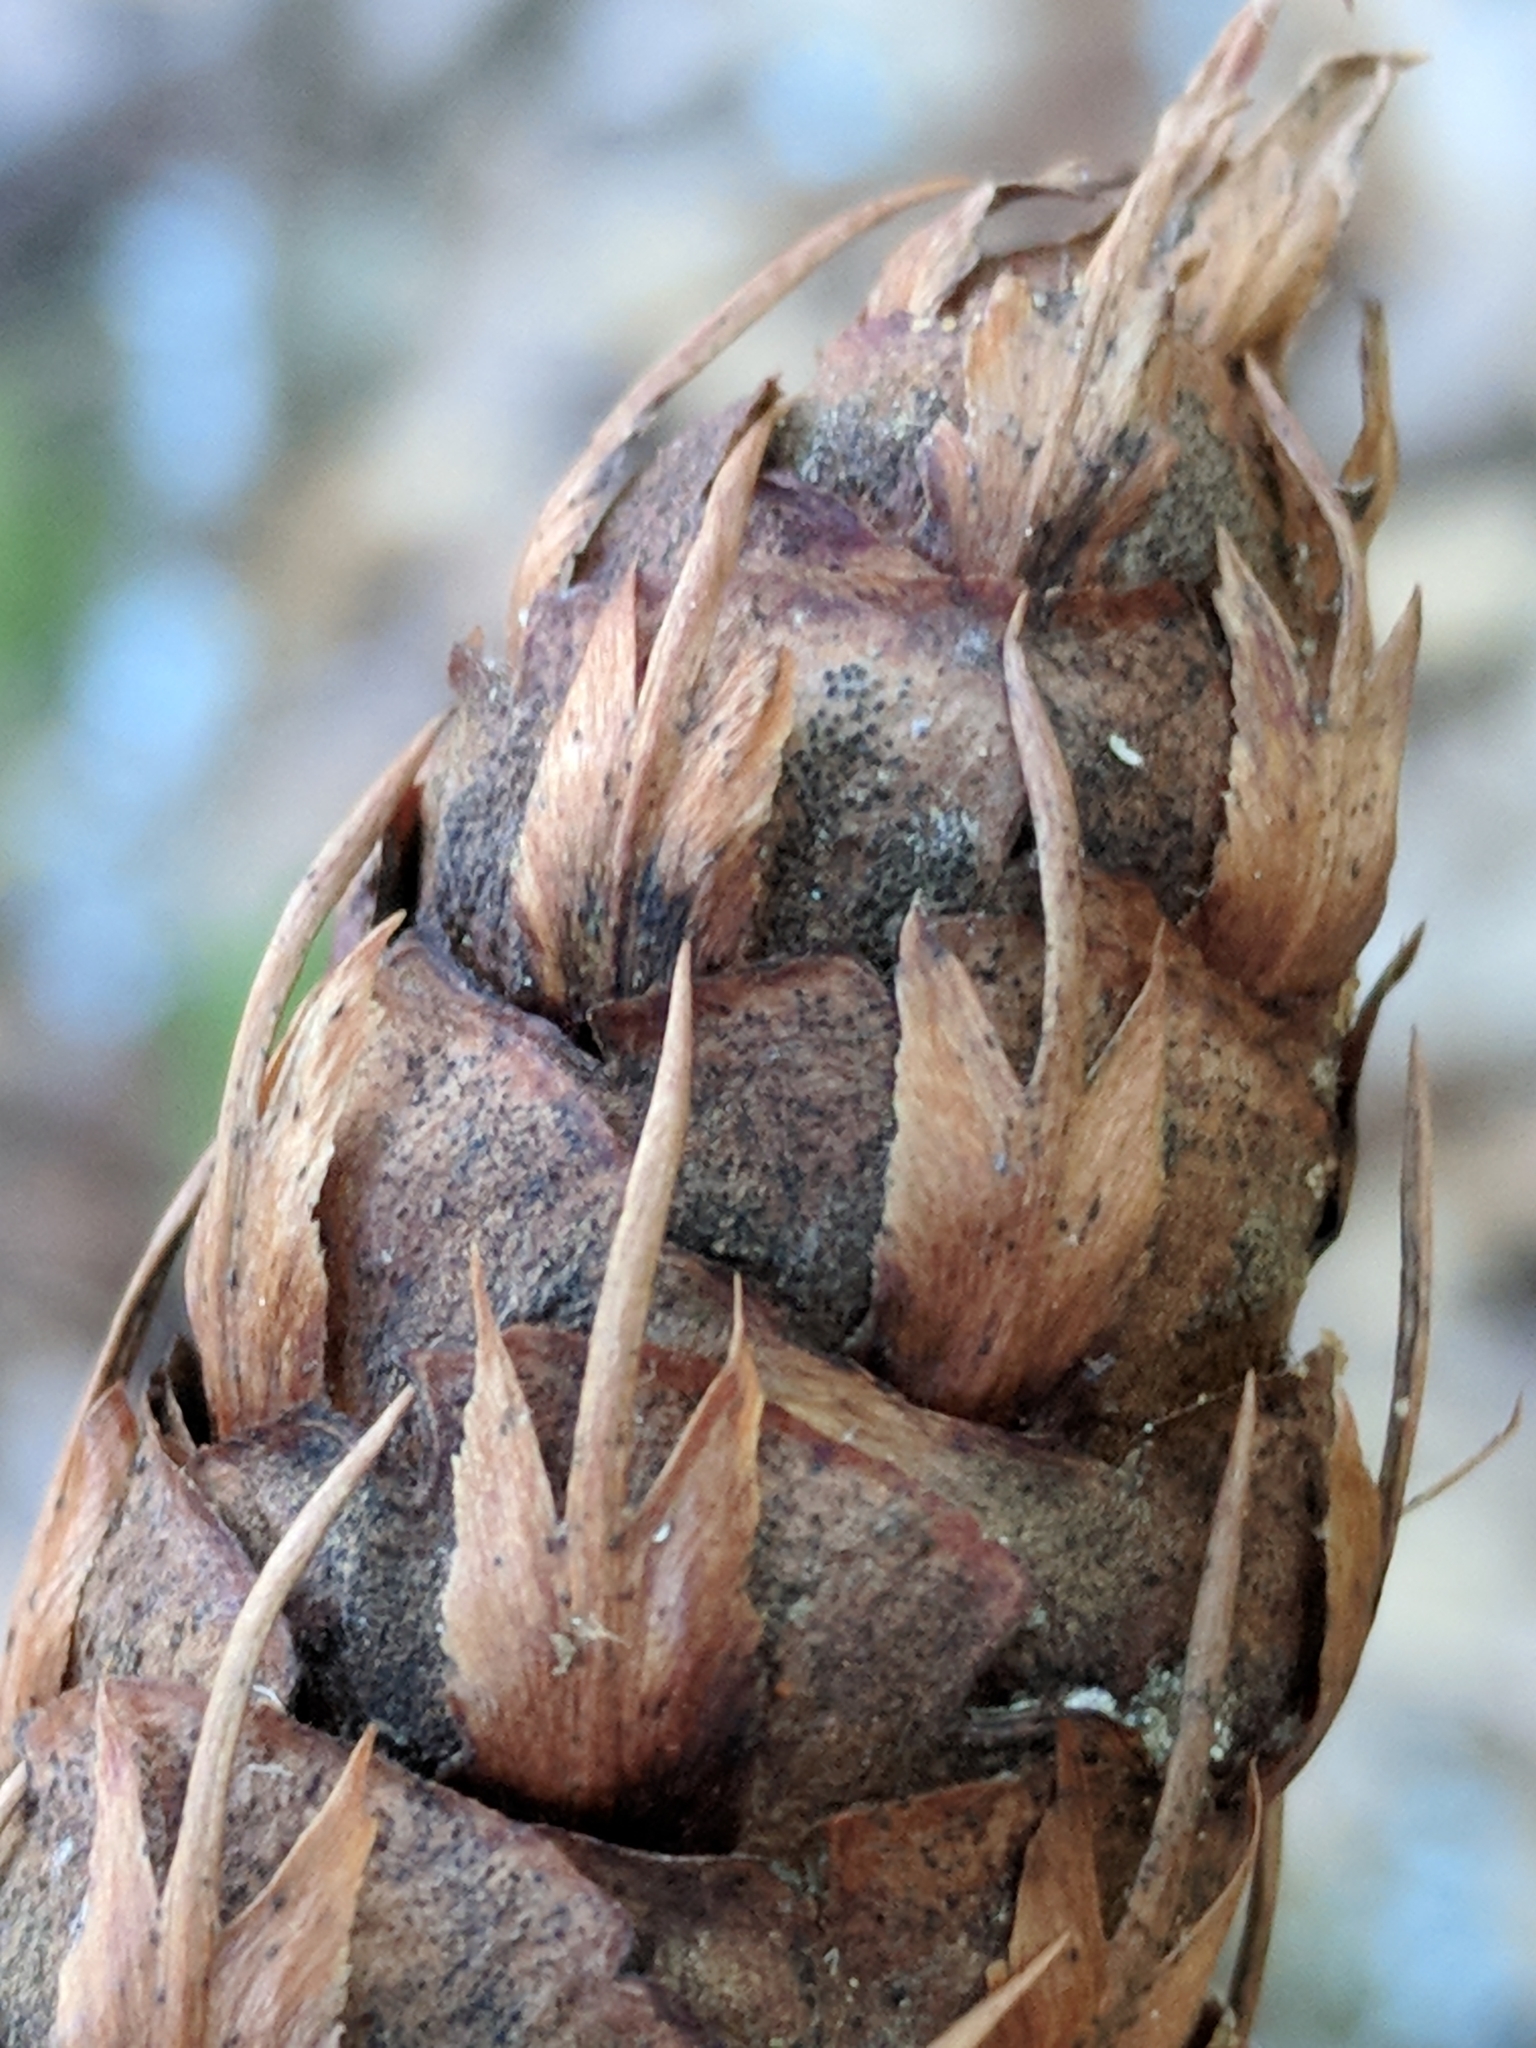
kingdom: Plantae
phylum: Tracheophyta
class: Pinopsida
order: Pinales
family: Pinaceae
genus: Pseudotsuga
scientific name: Pseudotsuga menziesii
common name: Douglas fir
